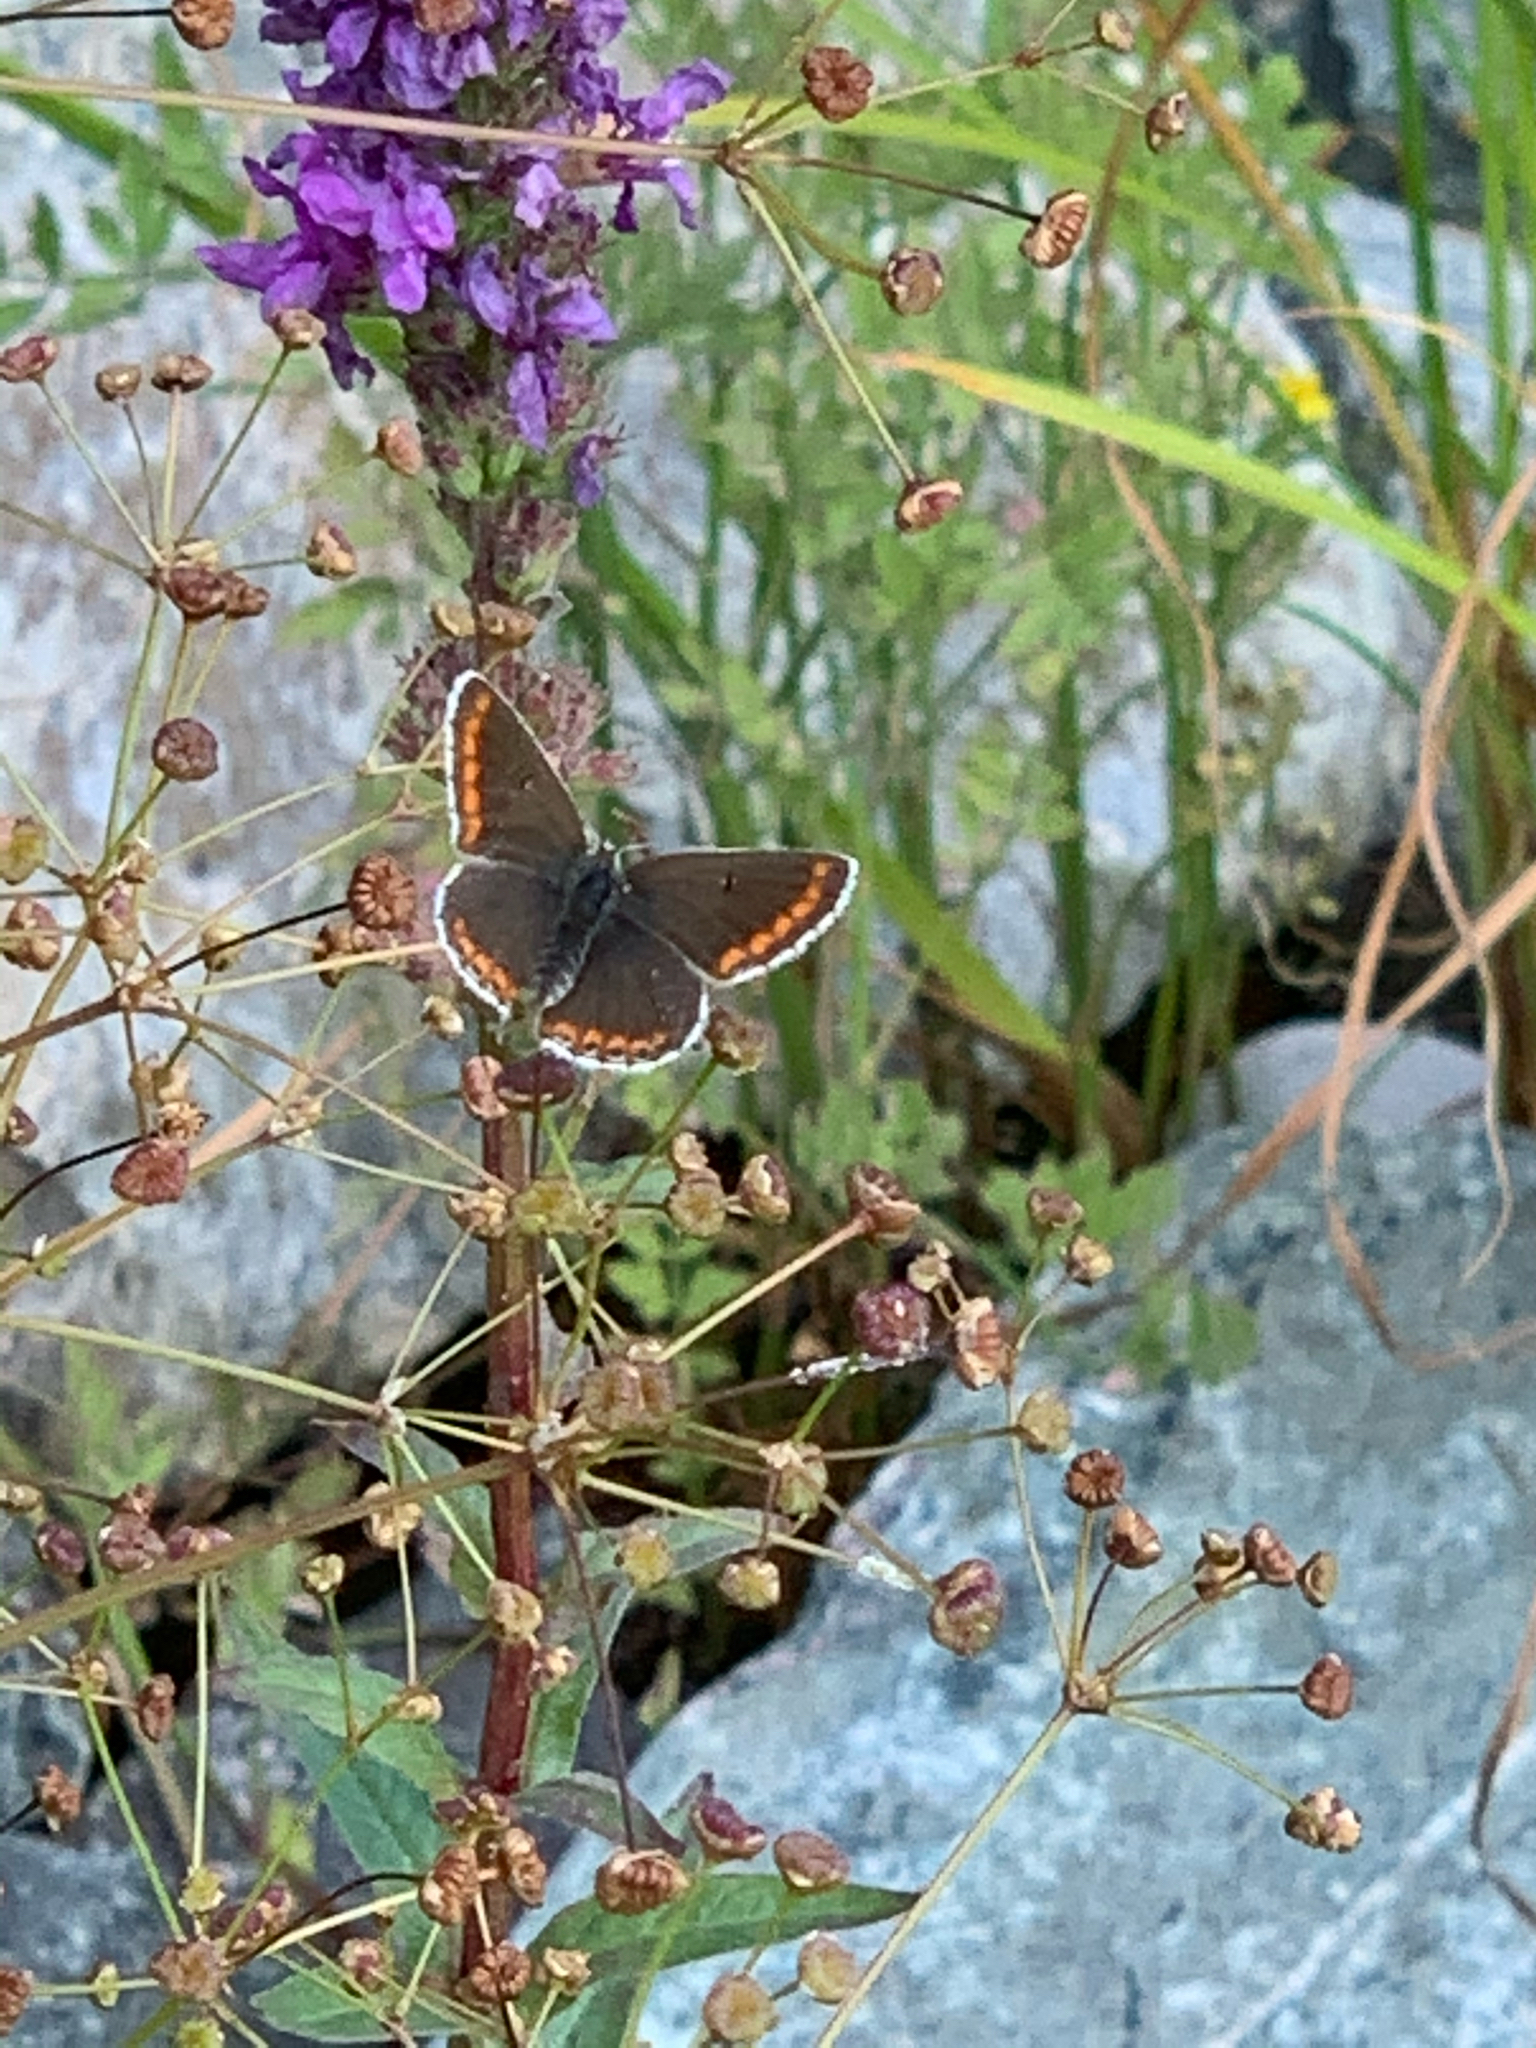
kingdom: Animalia
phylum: Arthropoda
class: Insecta
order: Lepidoptera
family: Lycaenidae
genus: Aricia
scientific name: Aricia agestis
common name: Brown argus
